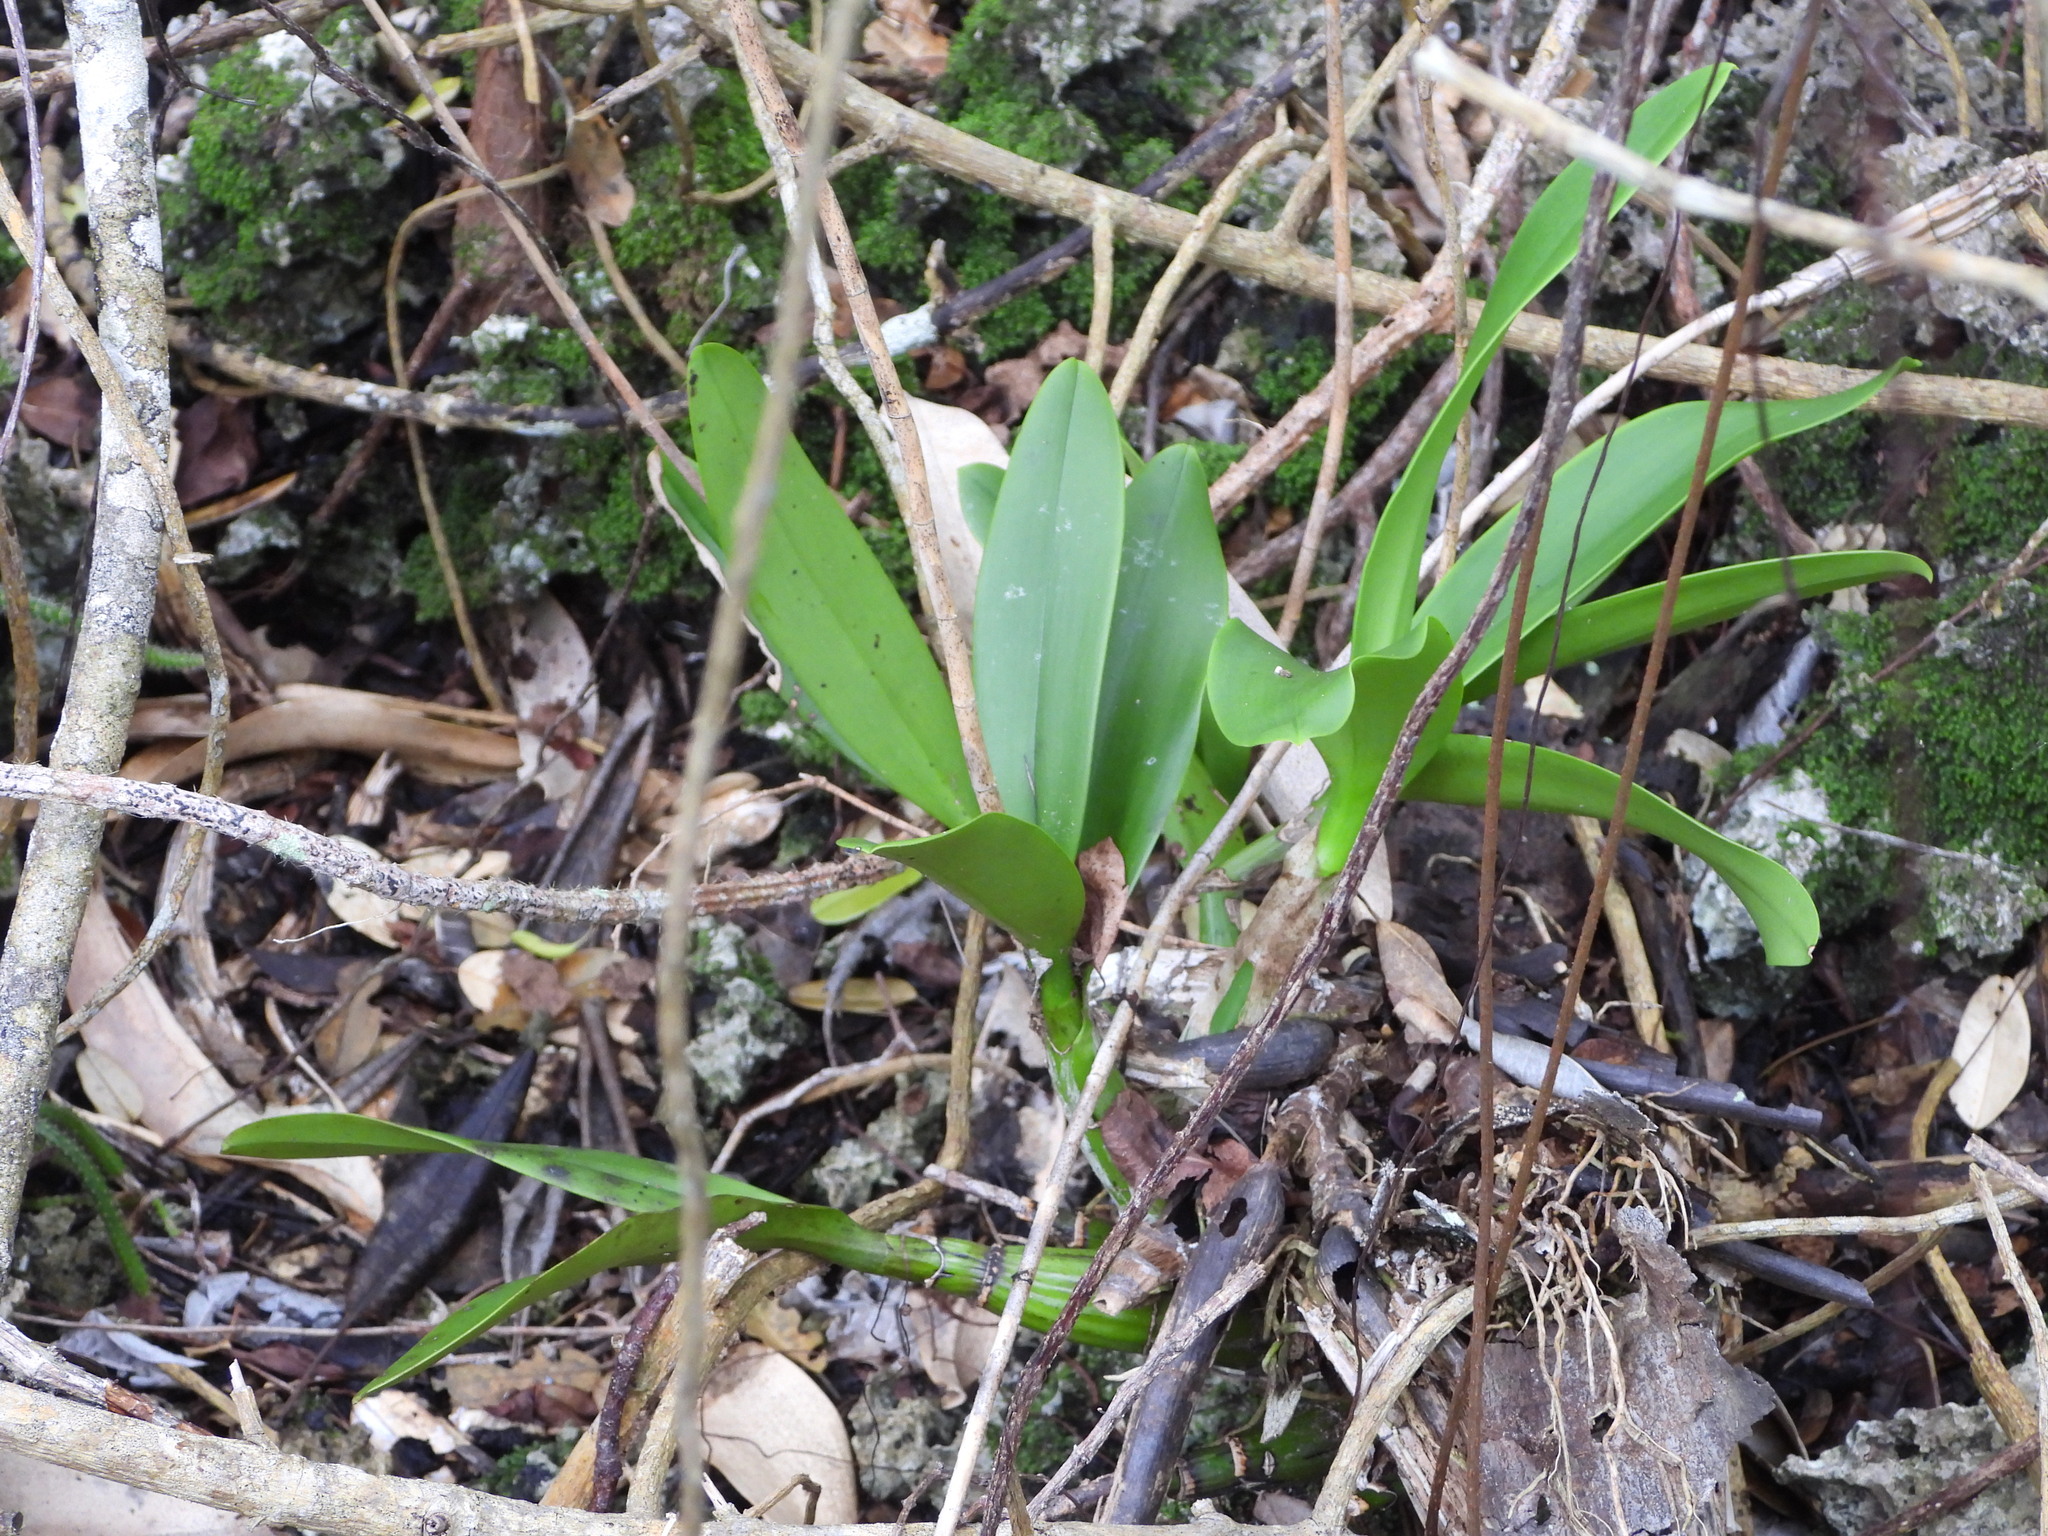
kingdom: Plantae
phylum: Tracheophyta
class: Liliopsida
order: Asparagales
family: Orchidaceae
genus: Myrmecophila
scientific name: Myrmecophila thomsoniana
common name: Banana orchid
